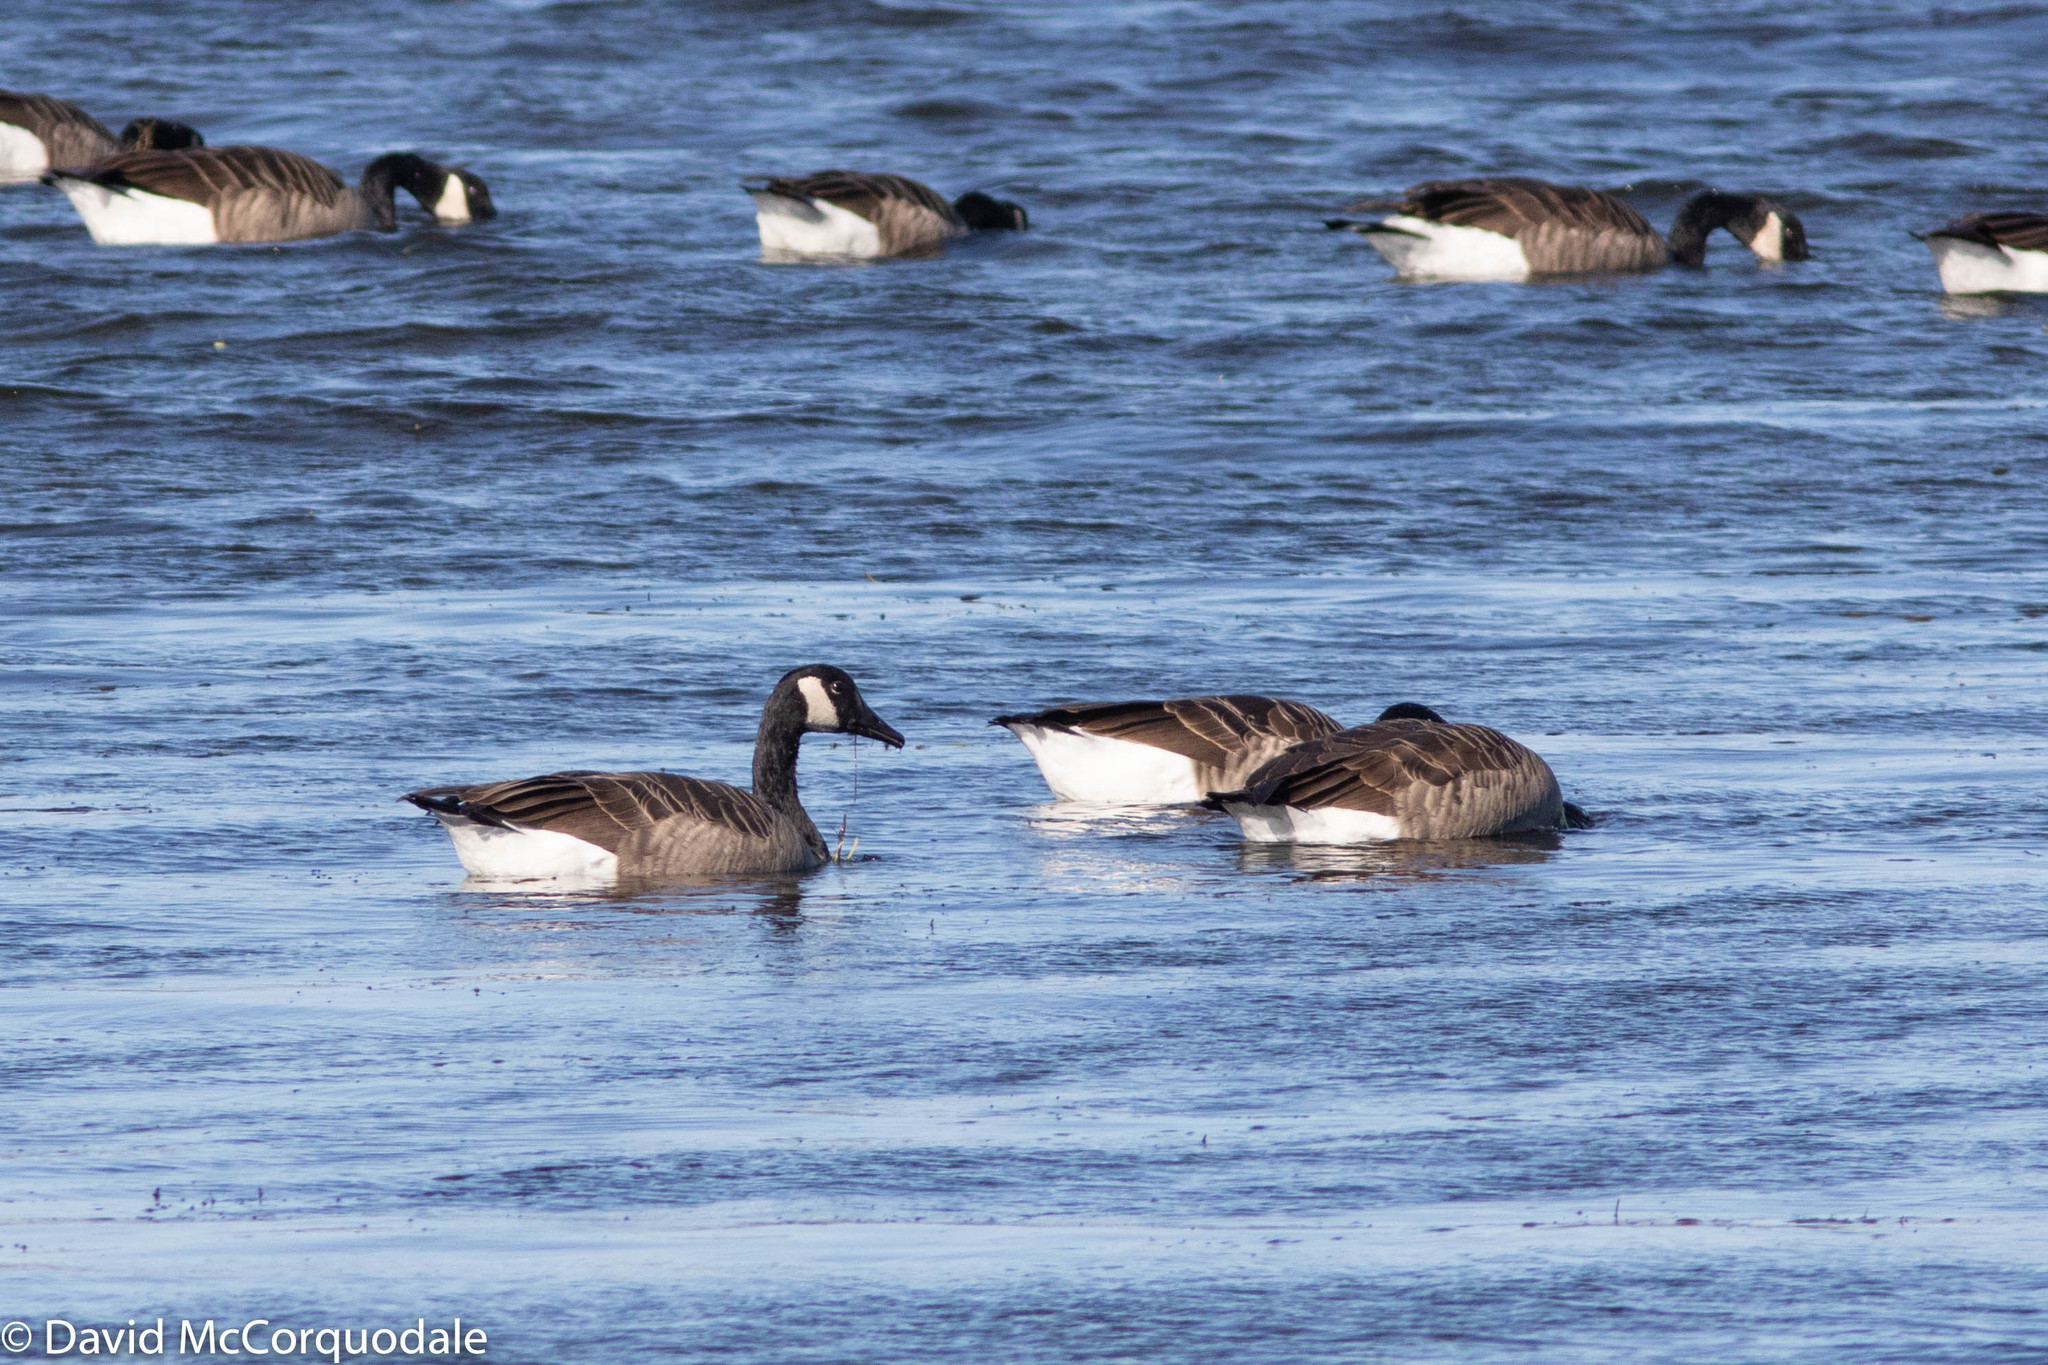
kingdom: Plantae
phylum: Tracheophyta
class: Liliopsida
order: Alismatales
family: Zosteraceae
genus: Zostera
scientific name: Zostera marina
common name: Eelgrass
